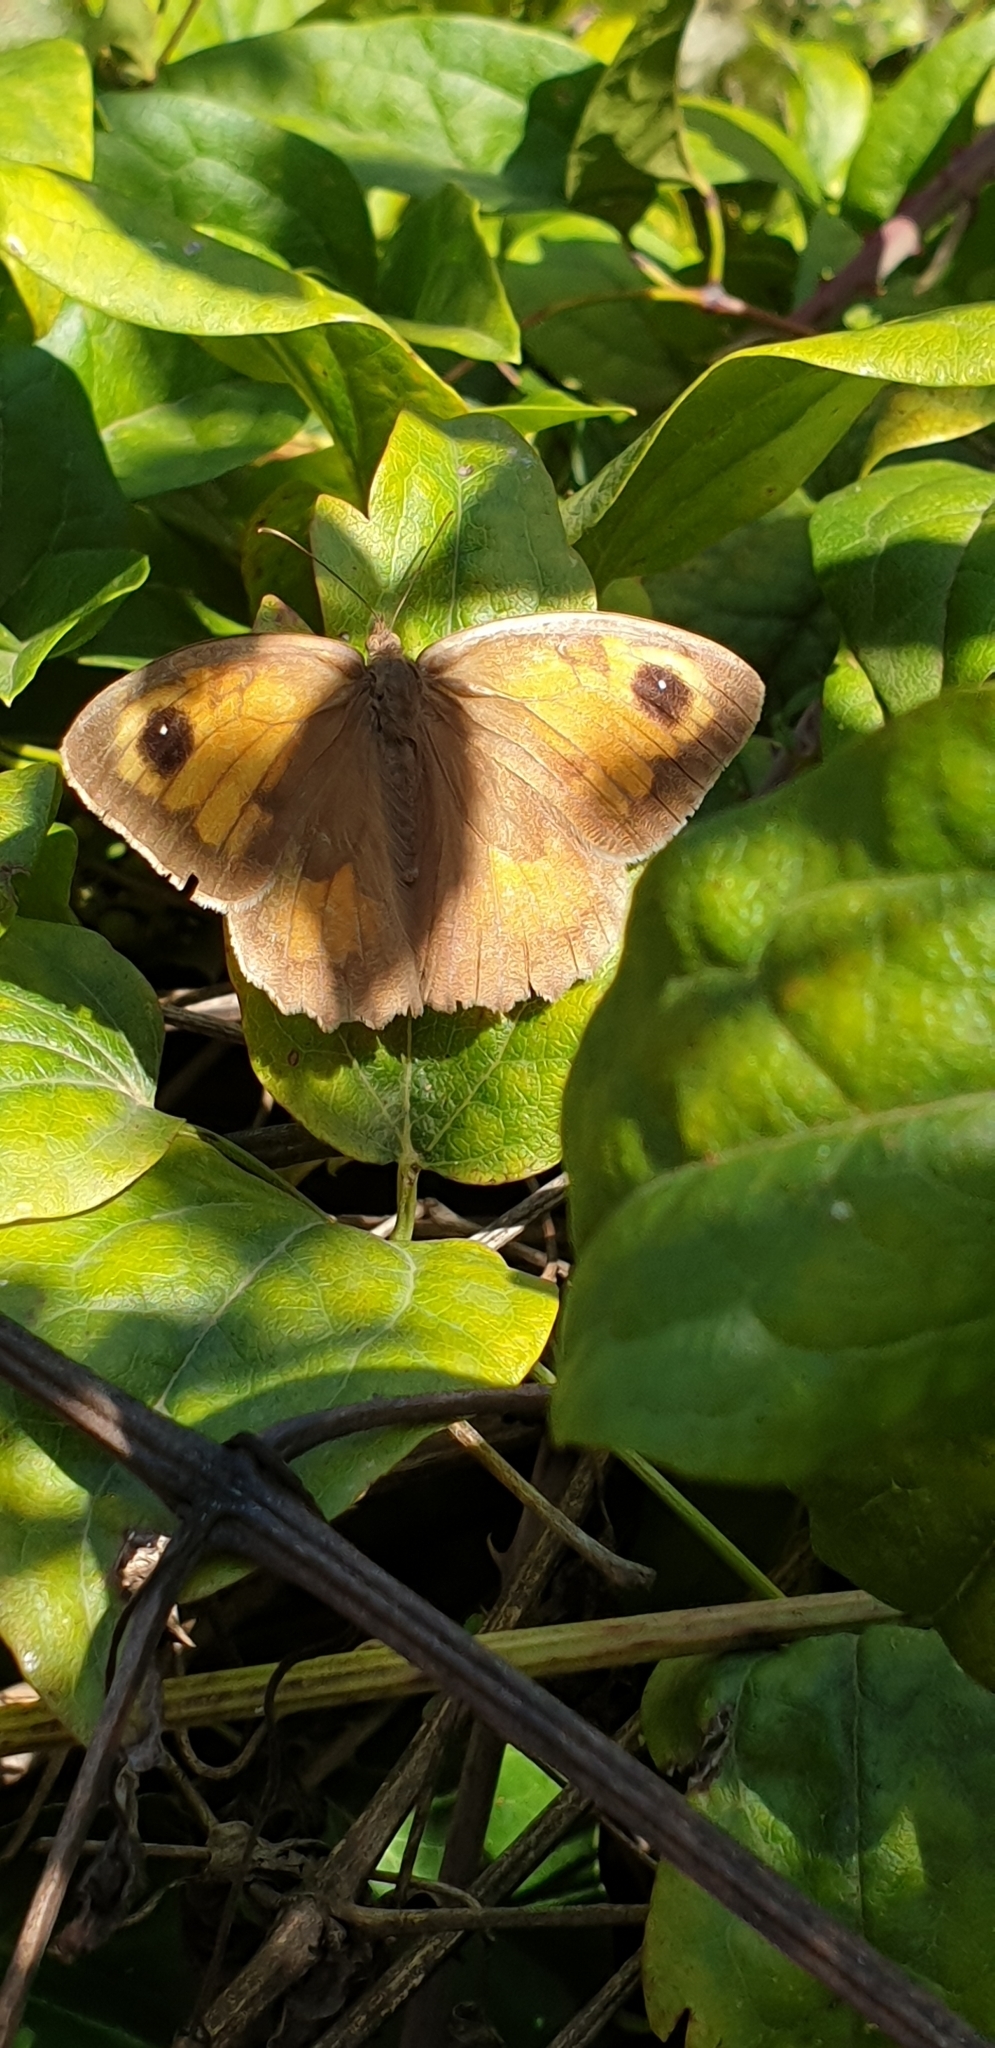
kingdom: Animalia
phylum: Arthropoda
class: Insecta
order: Lepidoptera
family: Nymphalidae
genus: Maniola
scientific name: Maniola jurtina
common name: Meadow brown
